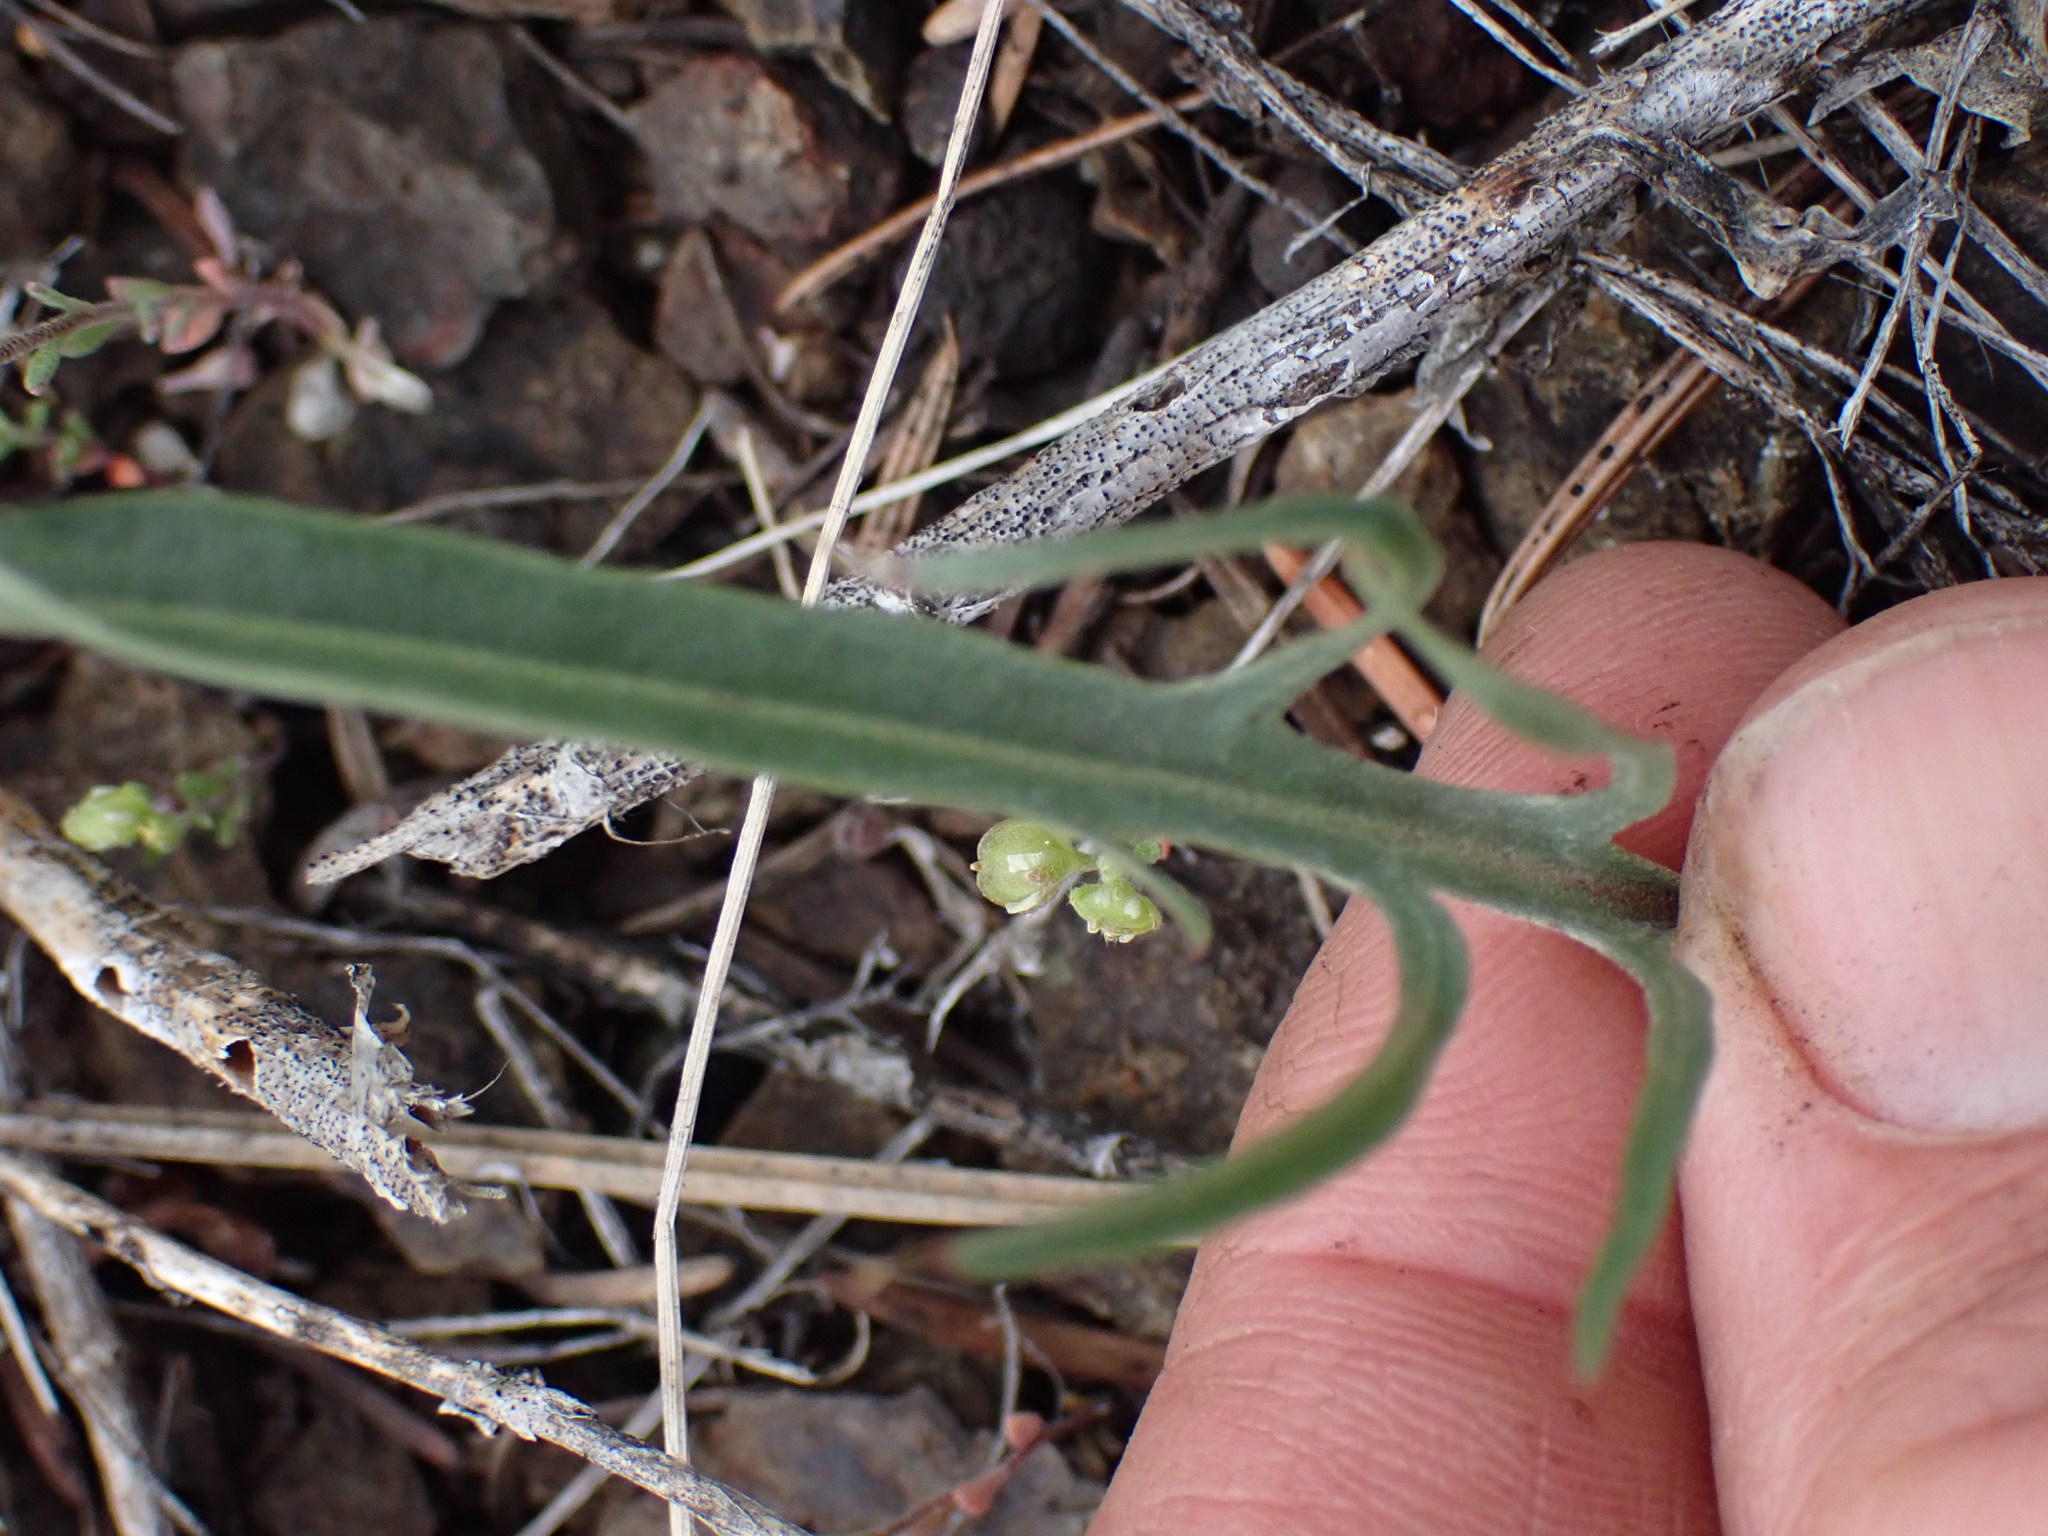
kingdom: Plantae
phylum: Tracheophyta
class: Magnoliopsida
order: Asterales
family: Asteraceae
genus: Crepis
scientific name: Crepis atribarba
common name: Dark hawk's-beard
